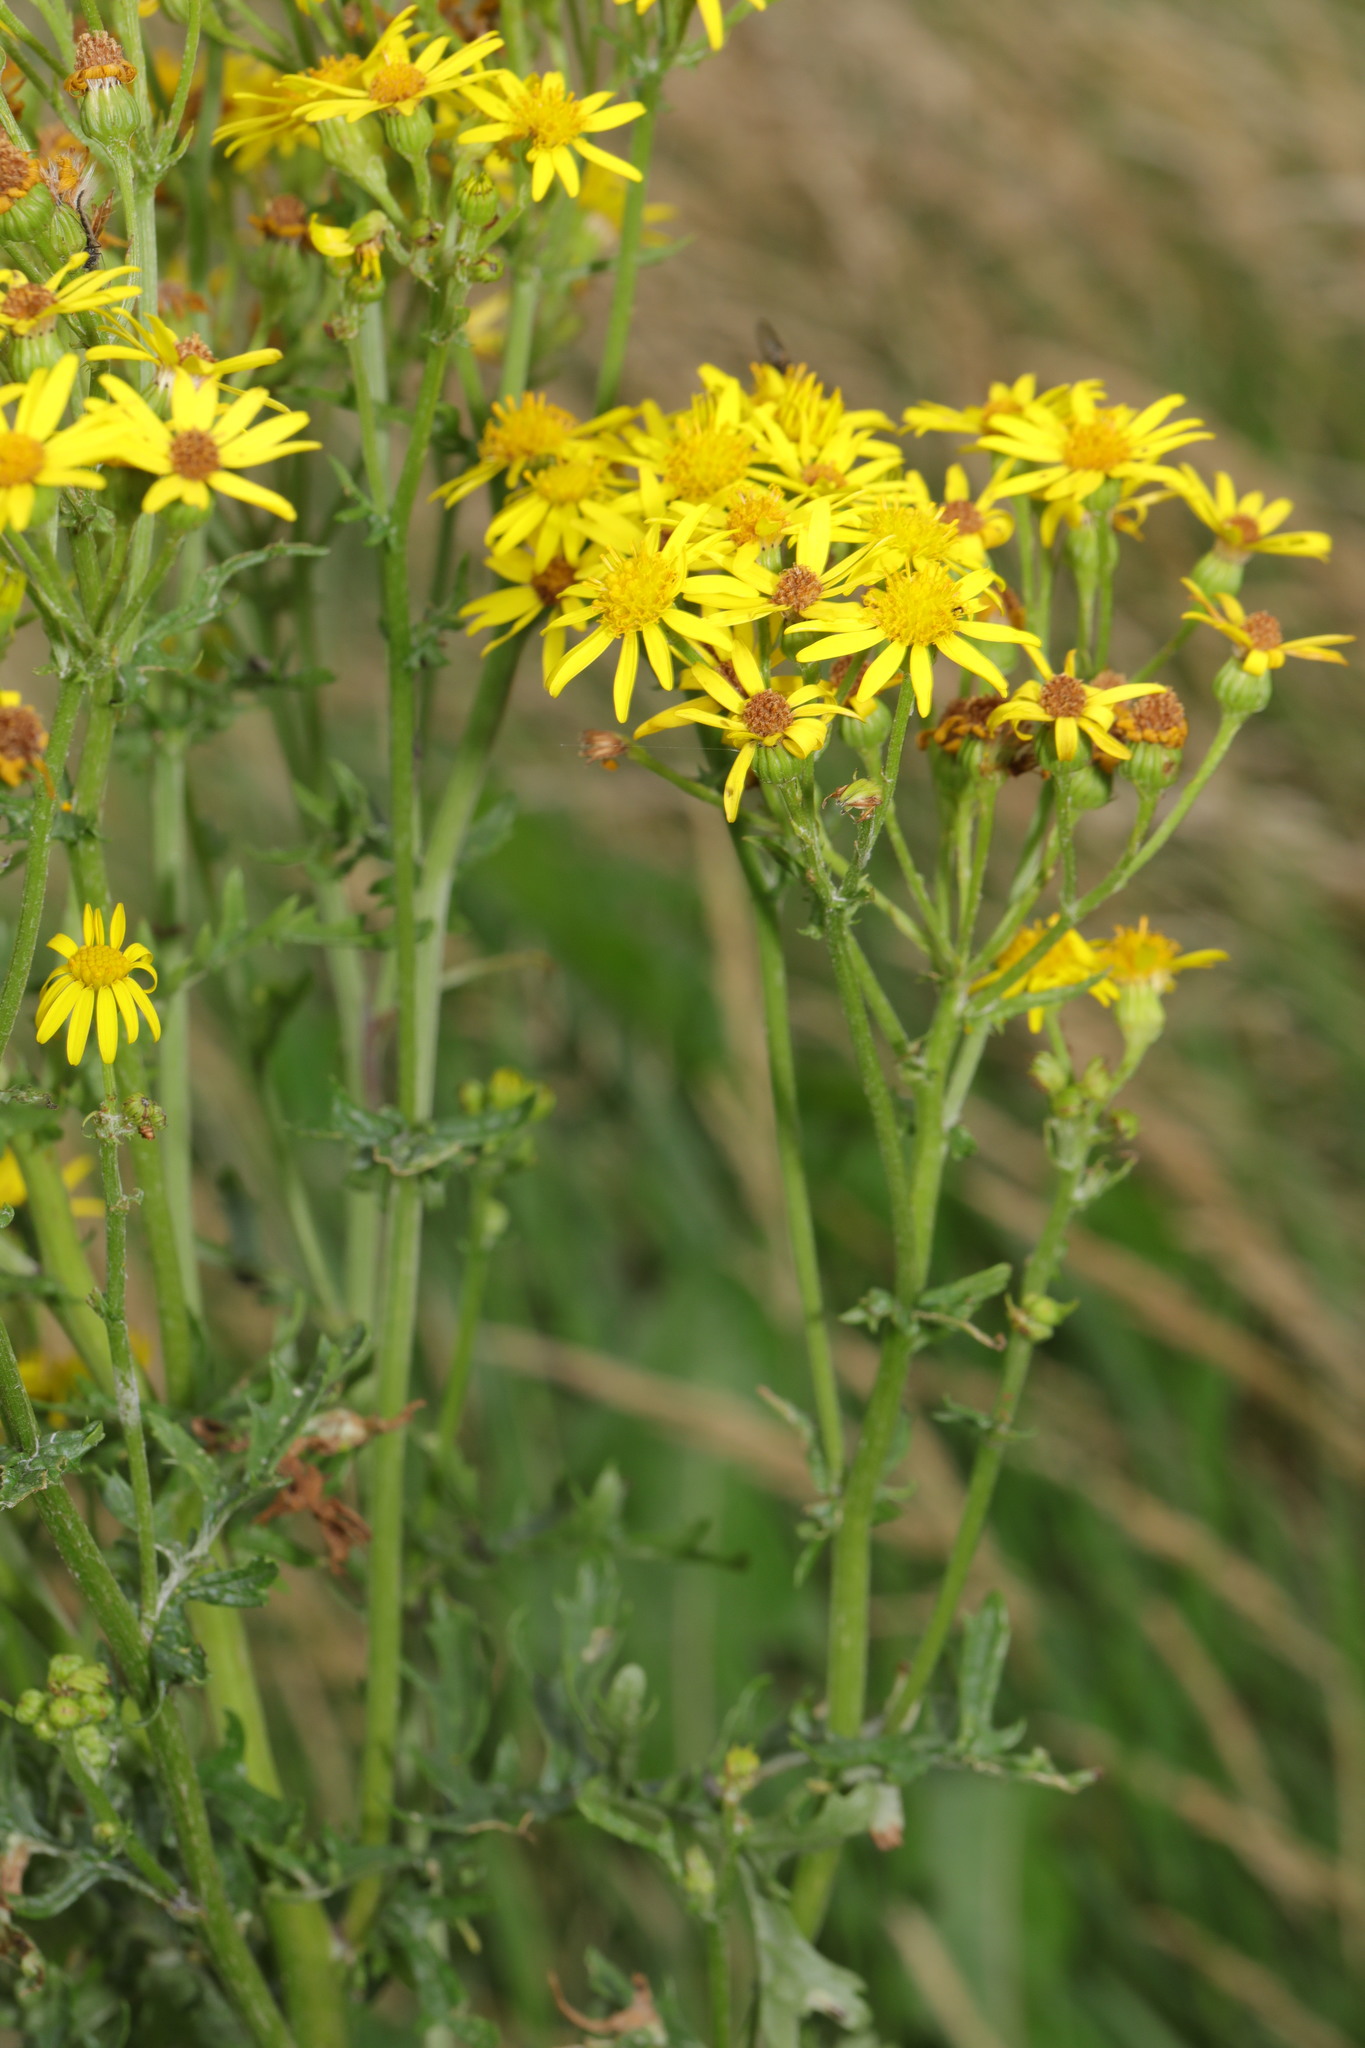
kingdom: Plantae
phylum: Tracheophyta
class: Magnoliopsida
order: Asterales
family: Asteraceae
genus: Jacobaea
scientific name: Jacobaea vulgaris
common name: Stinking willie
